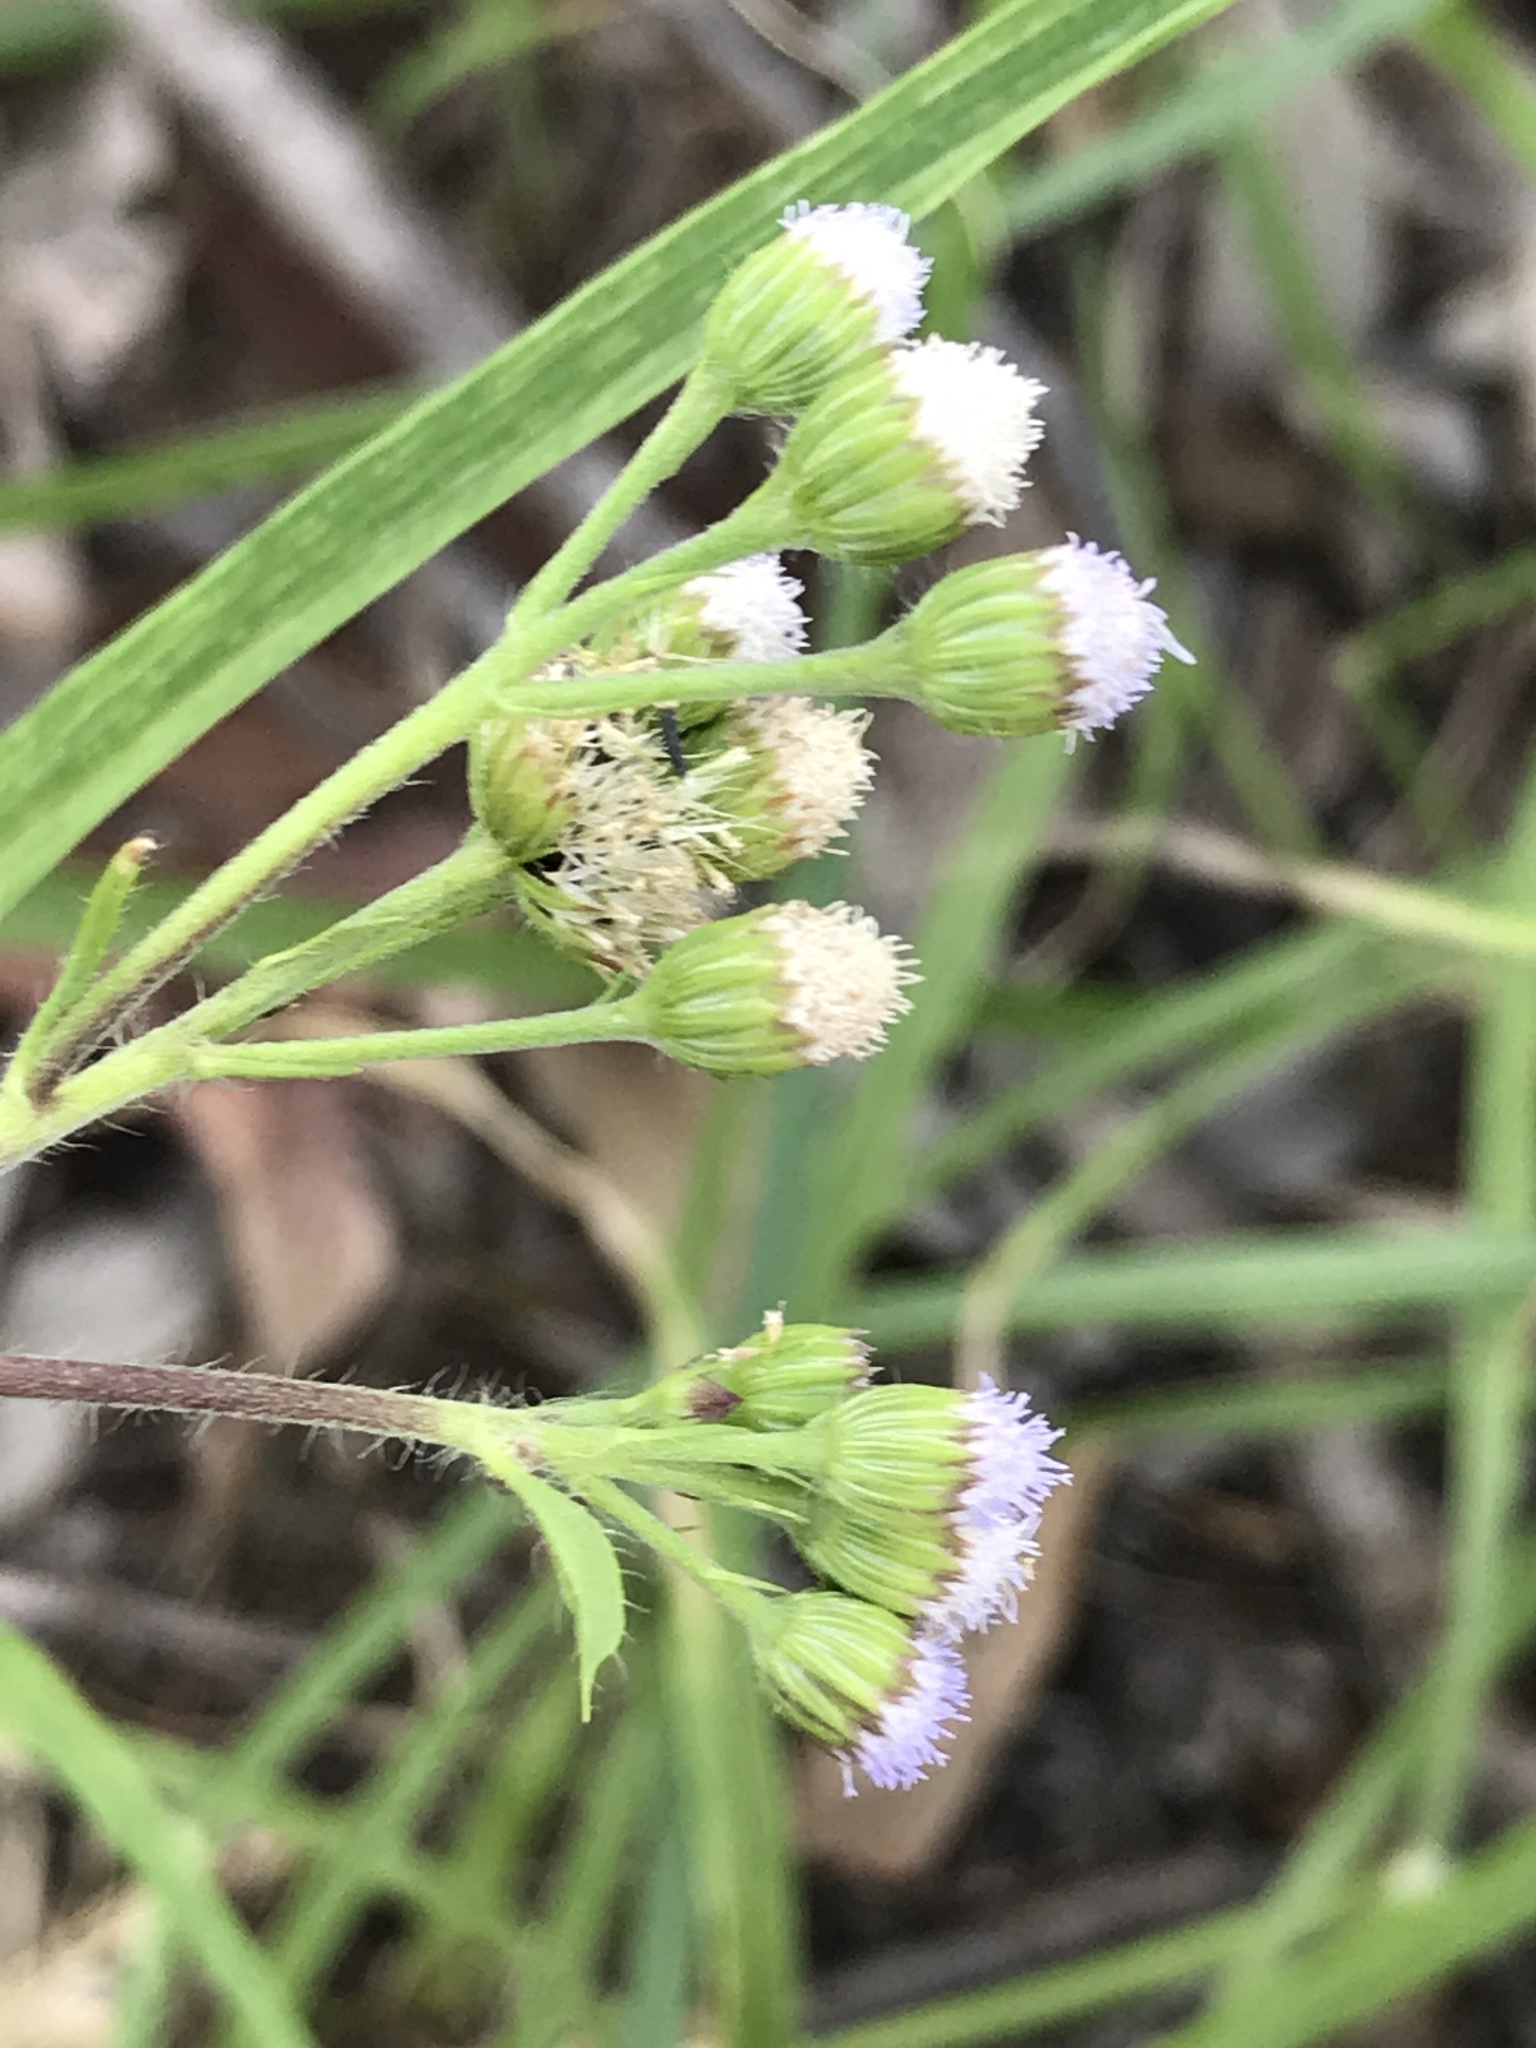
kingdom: Plantae
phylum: Tracheophyta
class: Magnoliopsida
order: Asterales
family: Asteraceae
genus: Ageratum
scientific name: Ageratum conyzoides
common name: Tropical whiteweed
